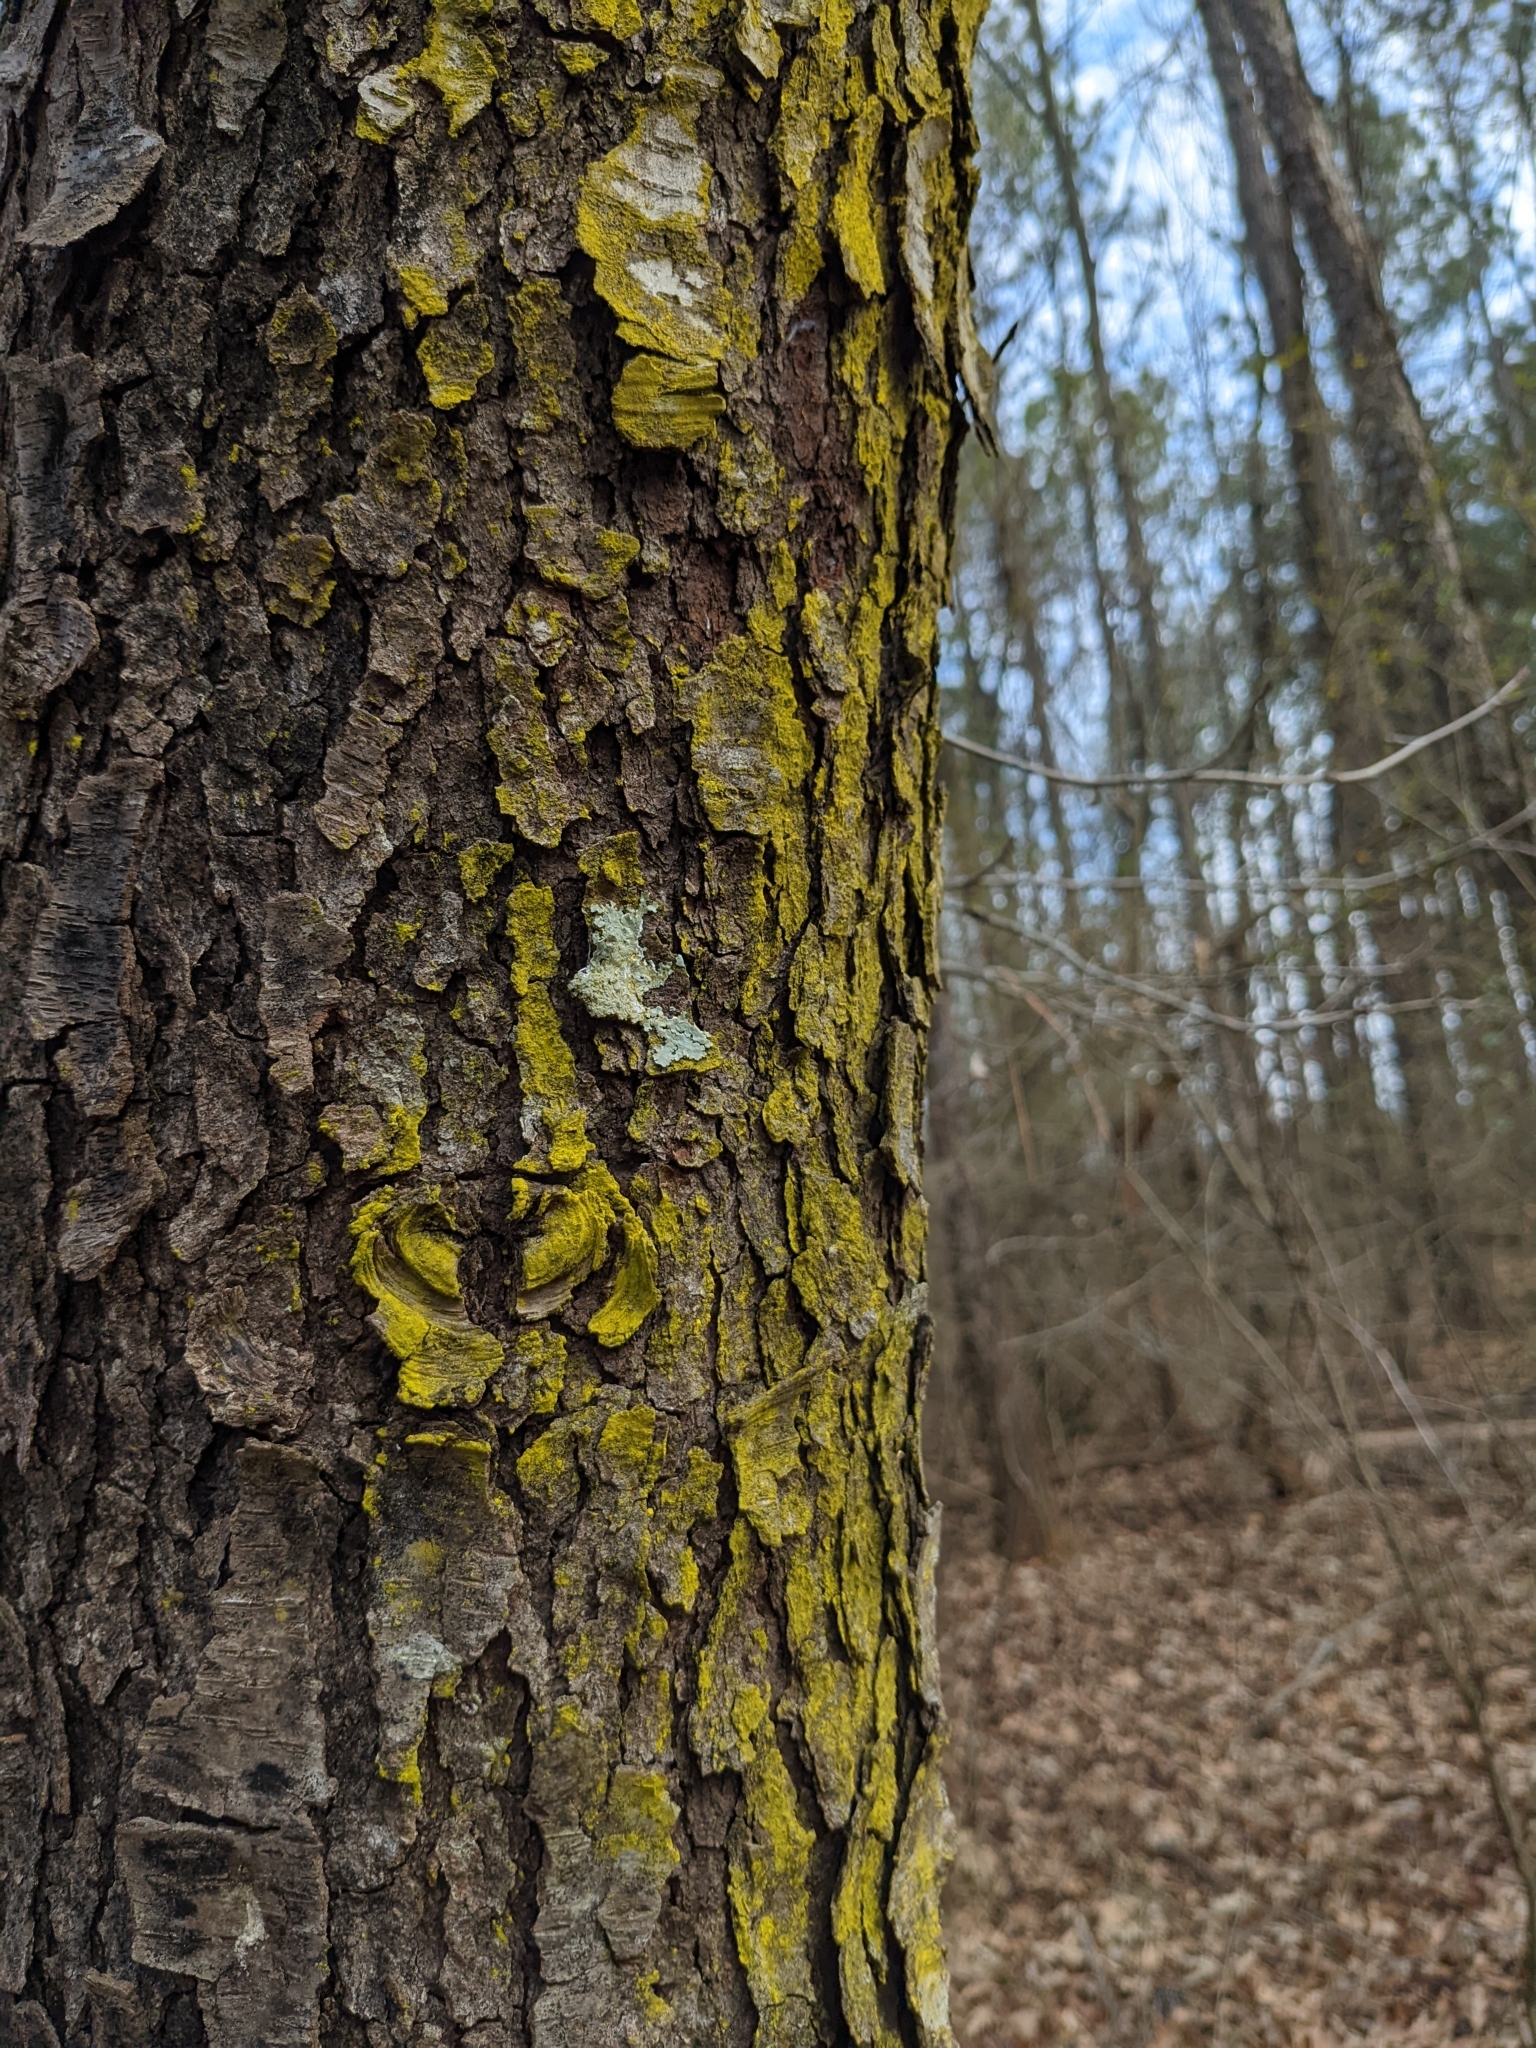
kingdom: Fungi
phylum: Ascomycota
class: Arthoniomycetes
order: Arthoniales
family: Chrysotrichaceae
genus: Chrysothrix
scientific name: Chrysothrix xanthina
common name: Common gold-dust
